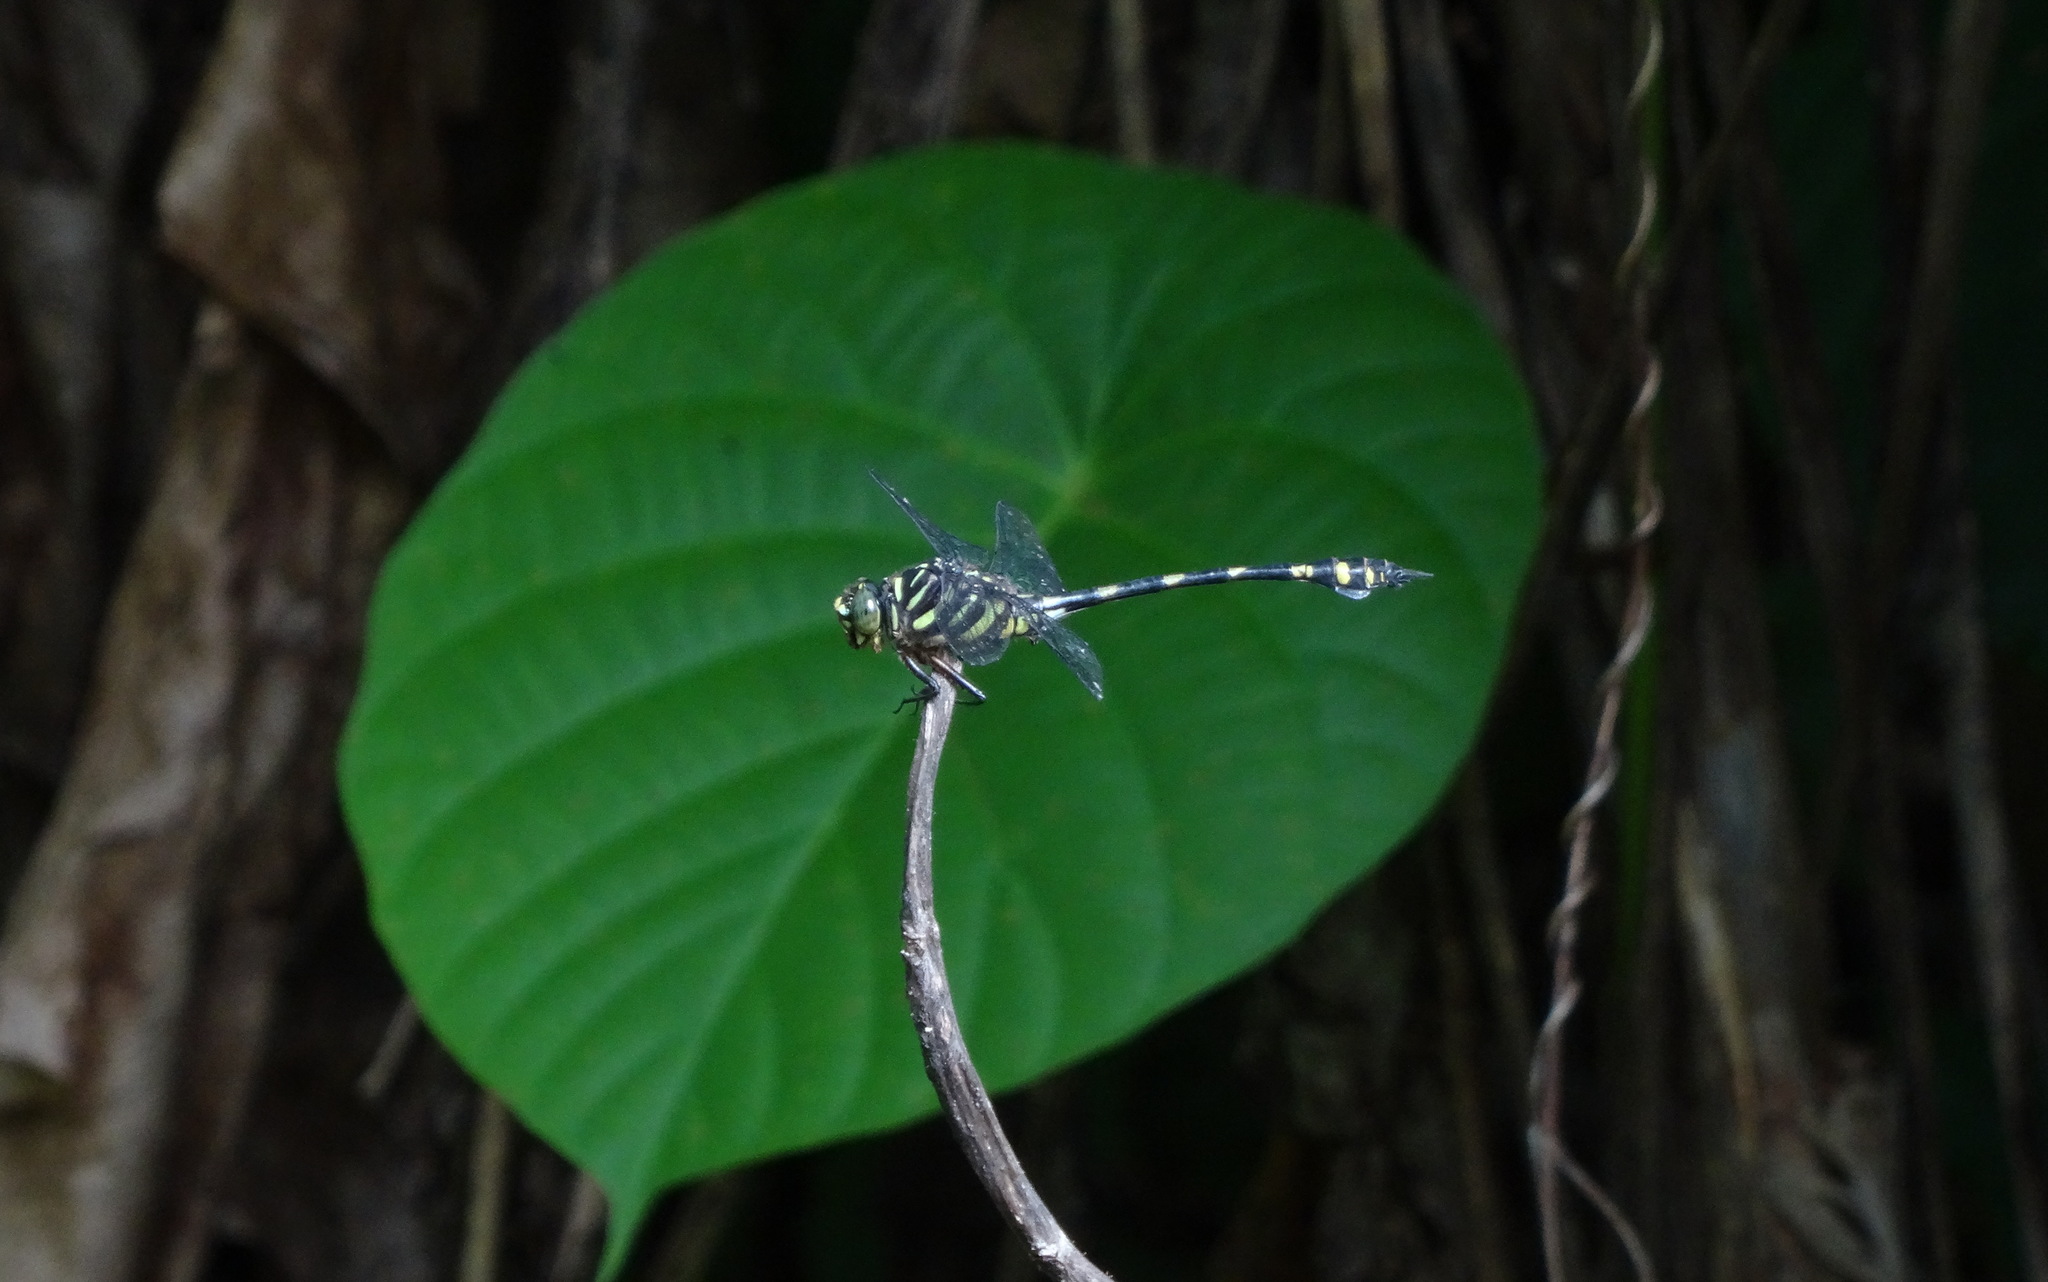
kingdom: Animalia
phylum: Arthropoda
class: Insecta
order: Odonata
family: Gomphidae
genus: Ictinogomphus
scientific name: Ictinogomphus lieftincki
